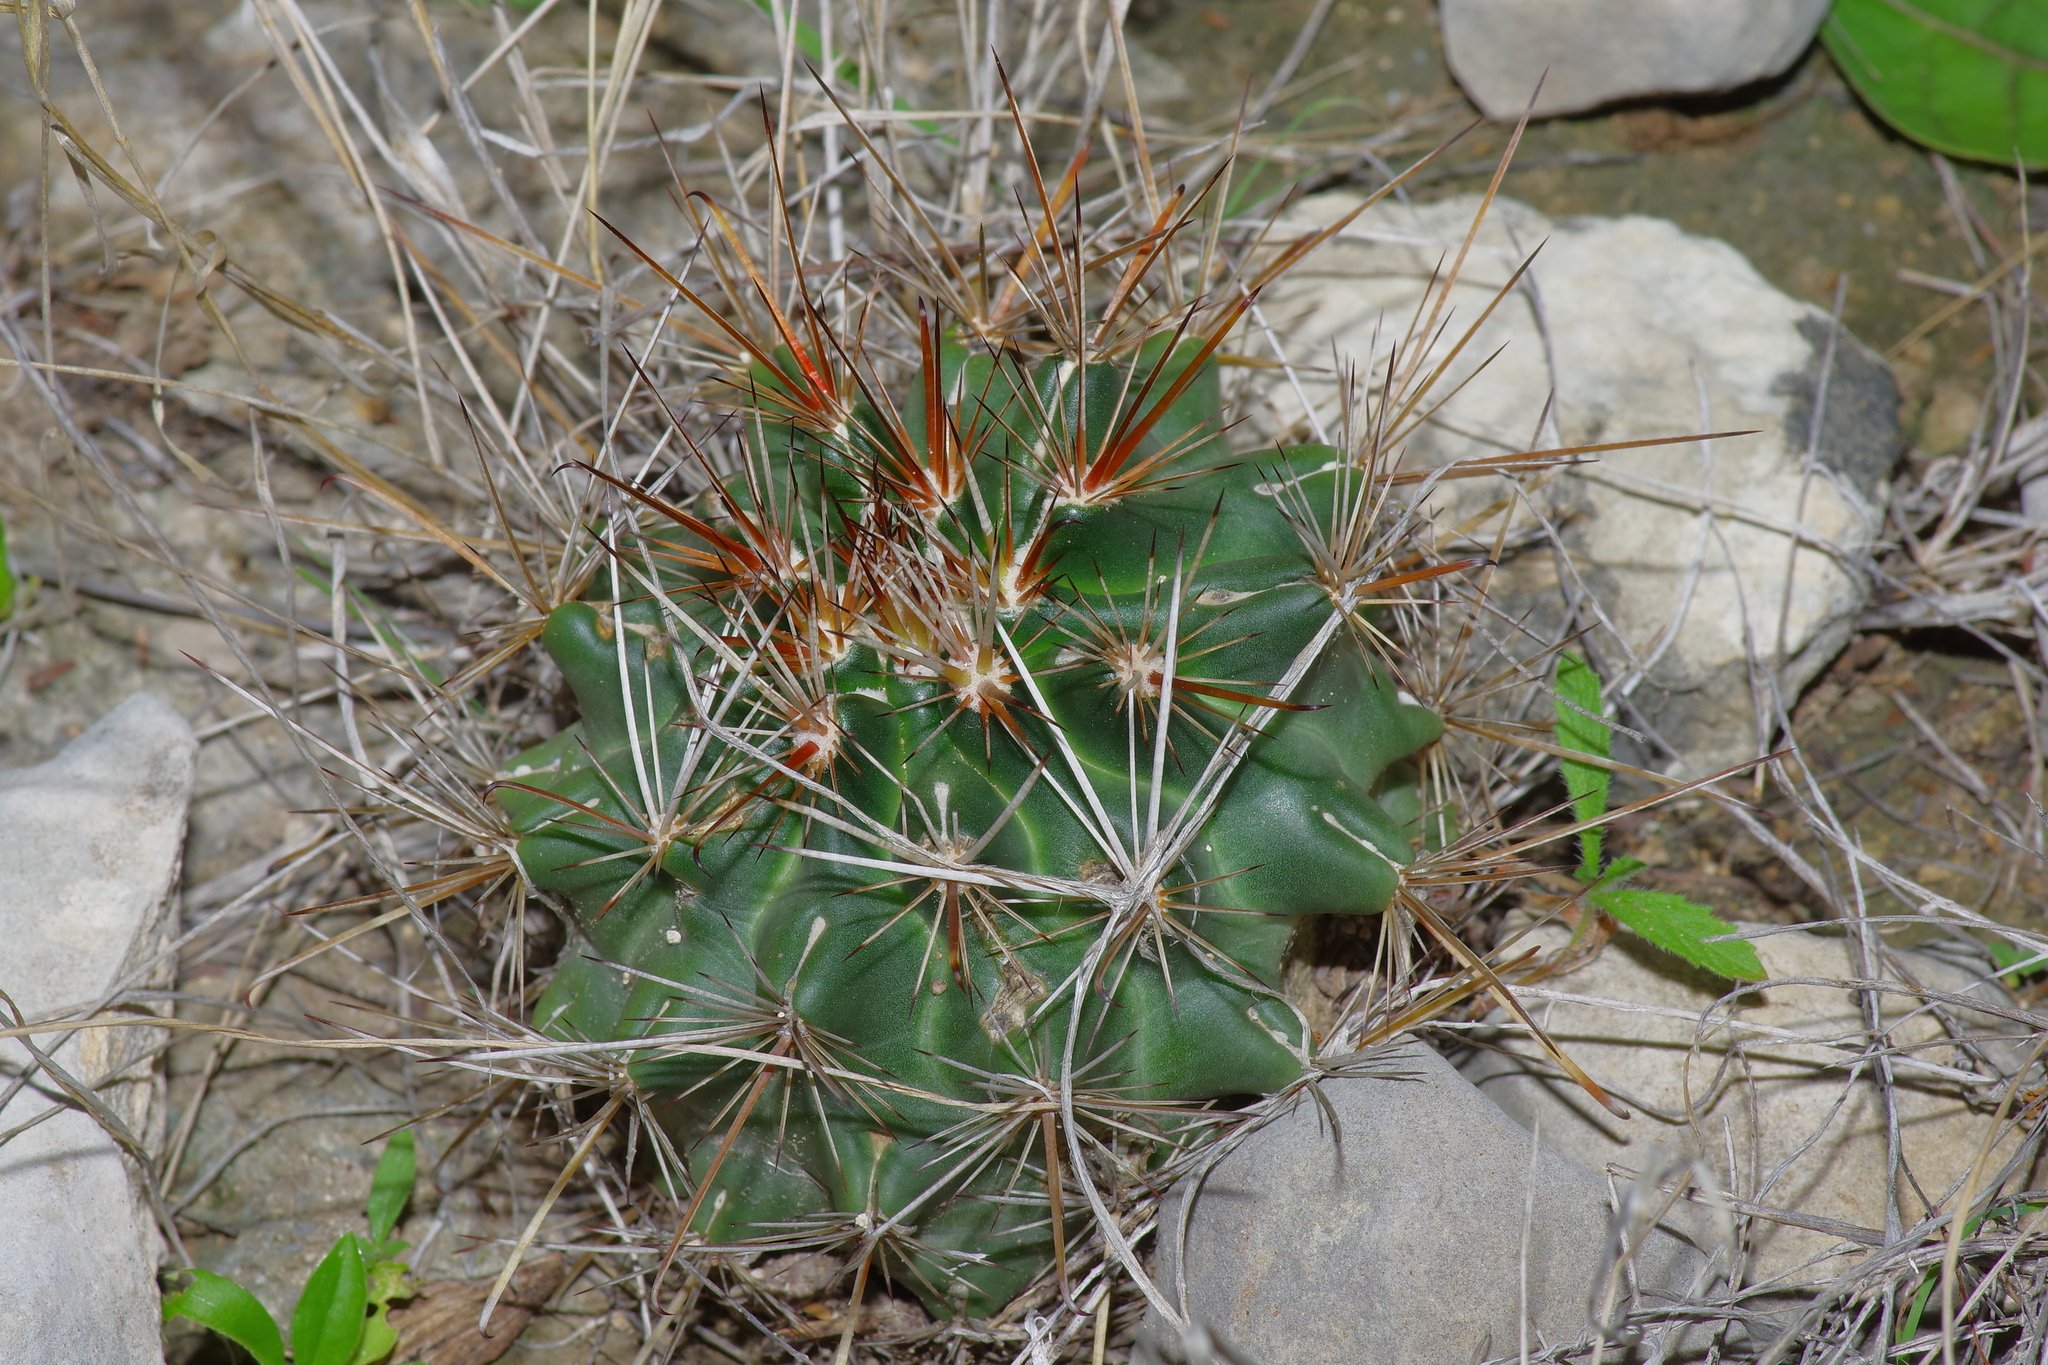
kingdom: Plantae
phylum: Tracheophyta
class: Magnoliopsida
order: Caryophyllales
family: Cactaceae
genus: Sclerocactus
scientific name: Sclerocactus brevihamatus
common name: Engelmann's fishhook cactus
